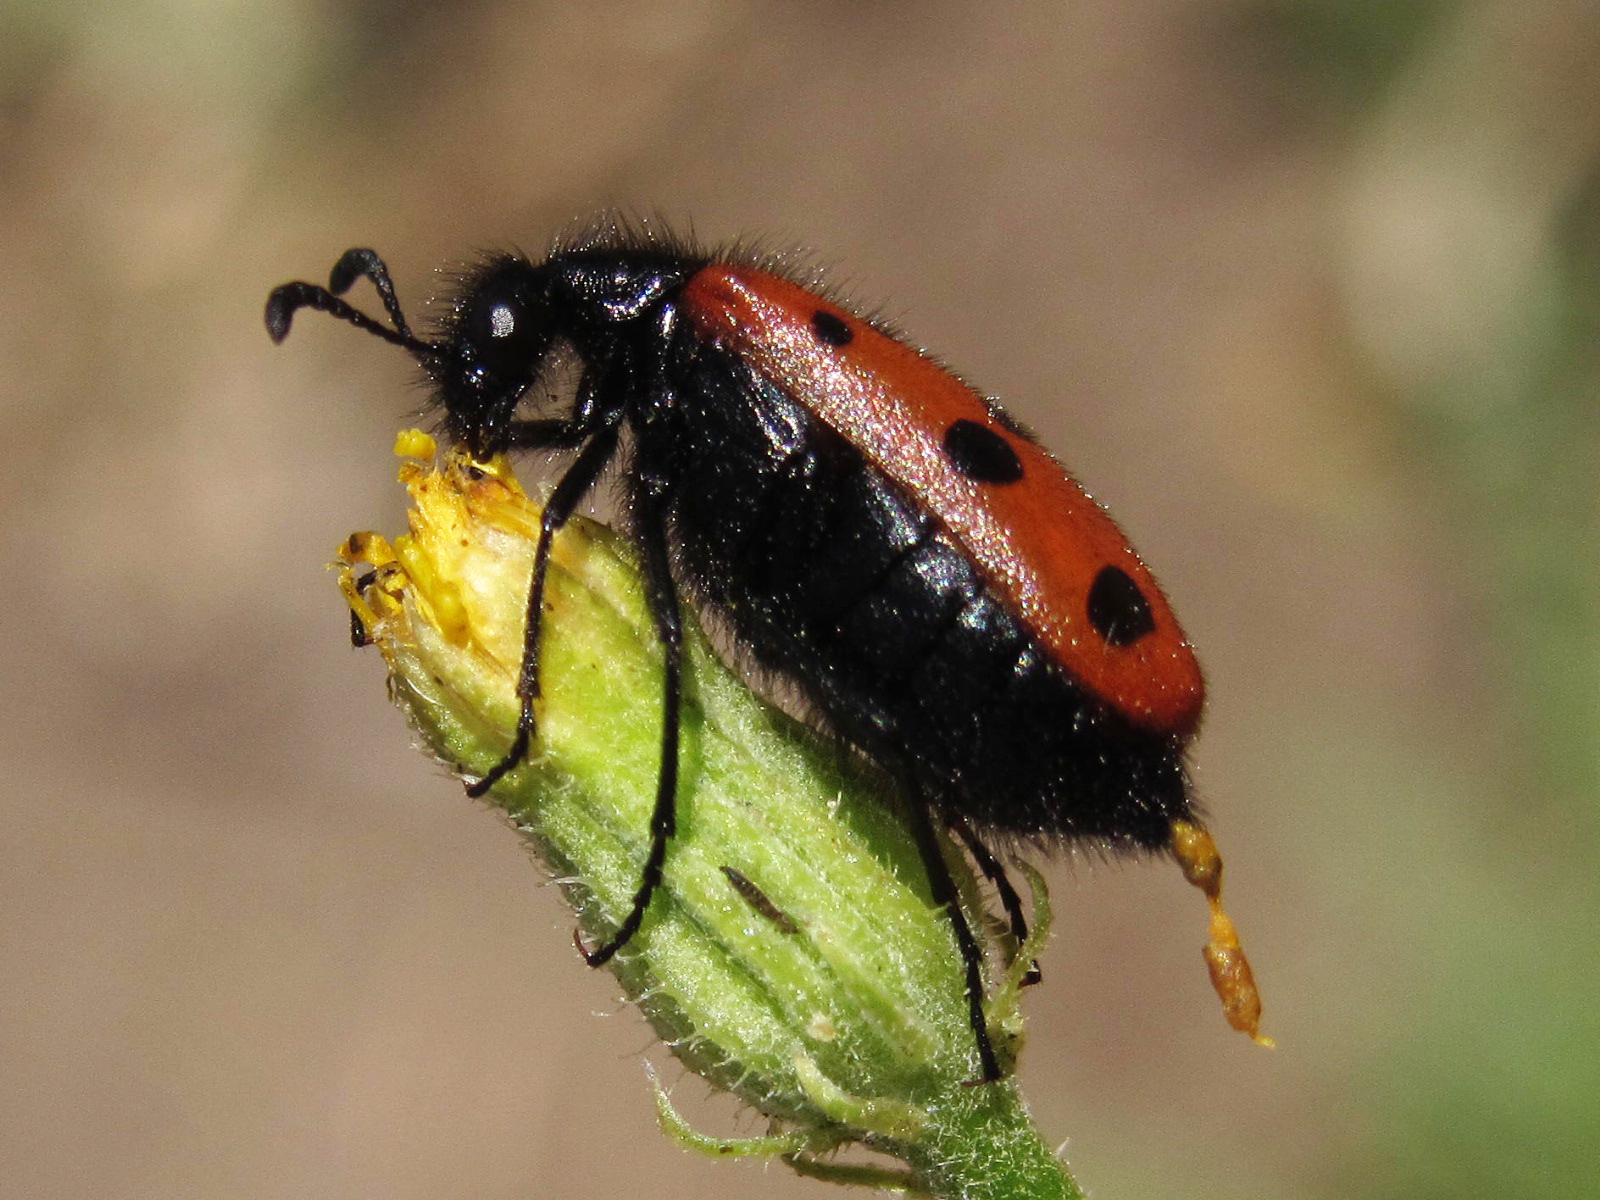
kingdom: Animalia
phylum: Arthropoda
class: Insecta
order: Coleoptera
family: Meloidae
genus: Mylabris
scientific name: Mylabris fabricii
